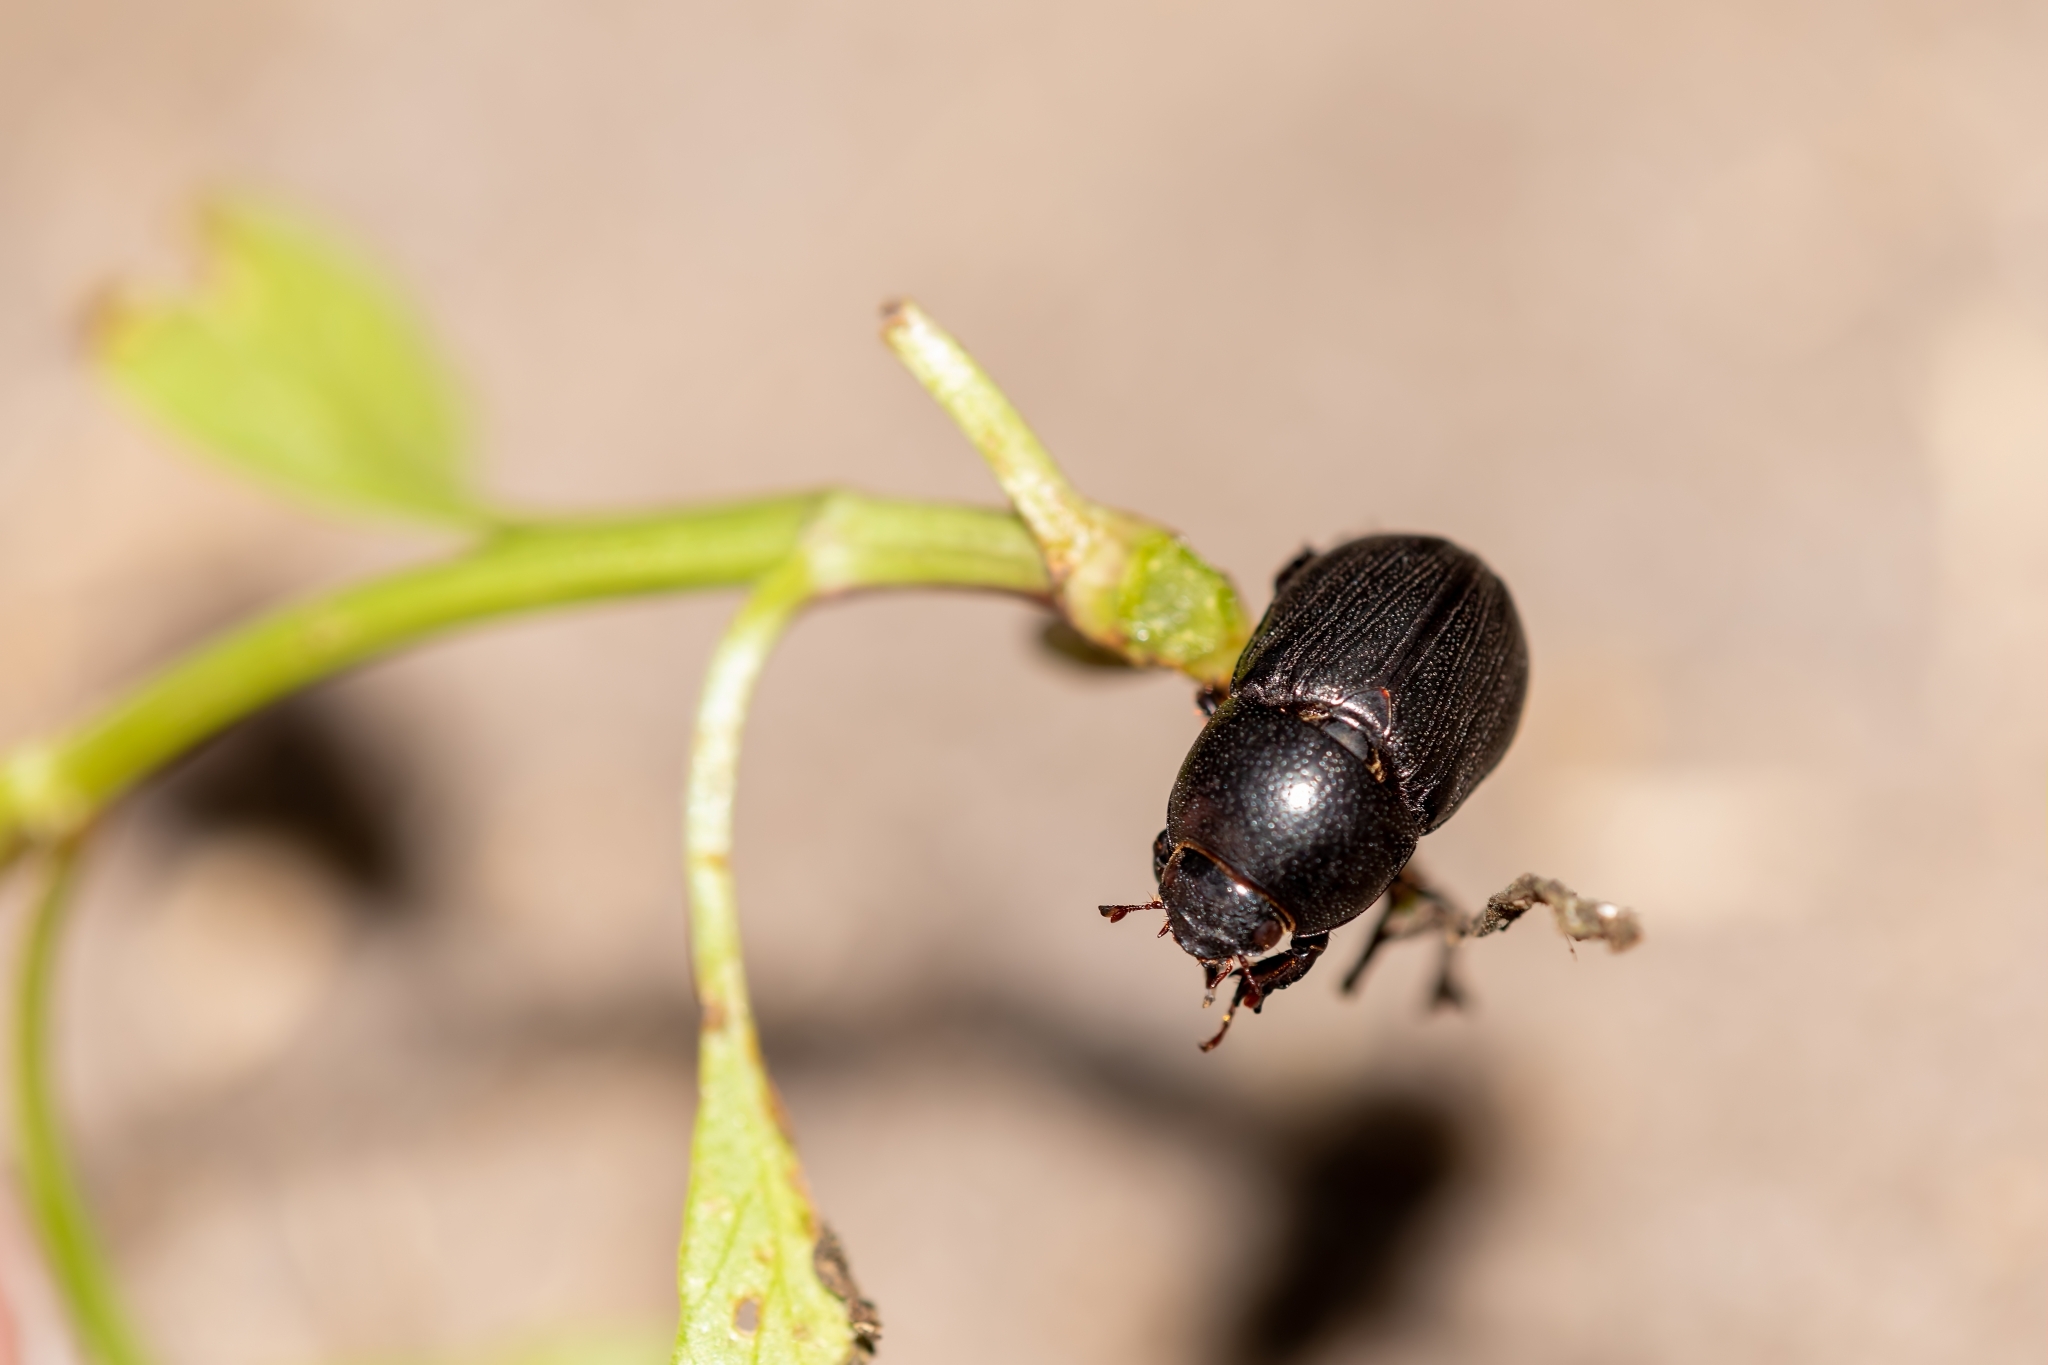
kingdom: Animalia
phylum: Arthropoda
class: Insecta
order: Coleoptera
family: Scarabaeidae
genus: Euetheola
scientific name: Euetheola rugiceps
